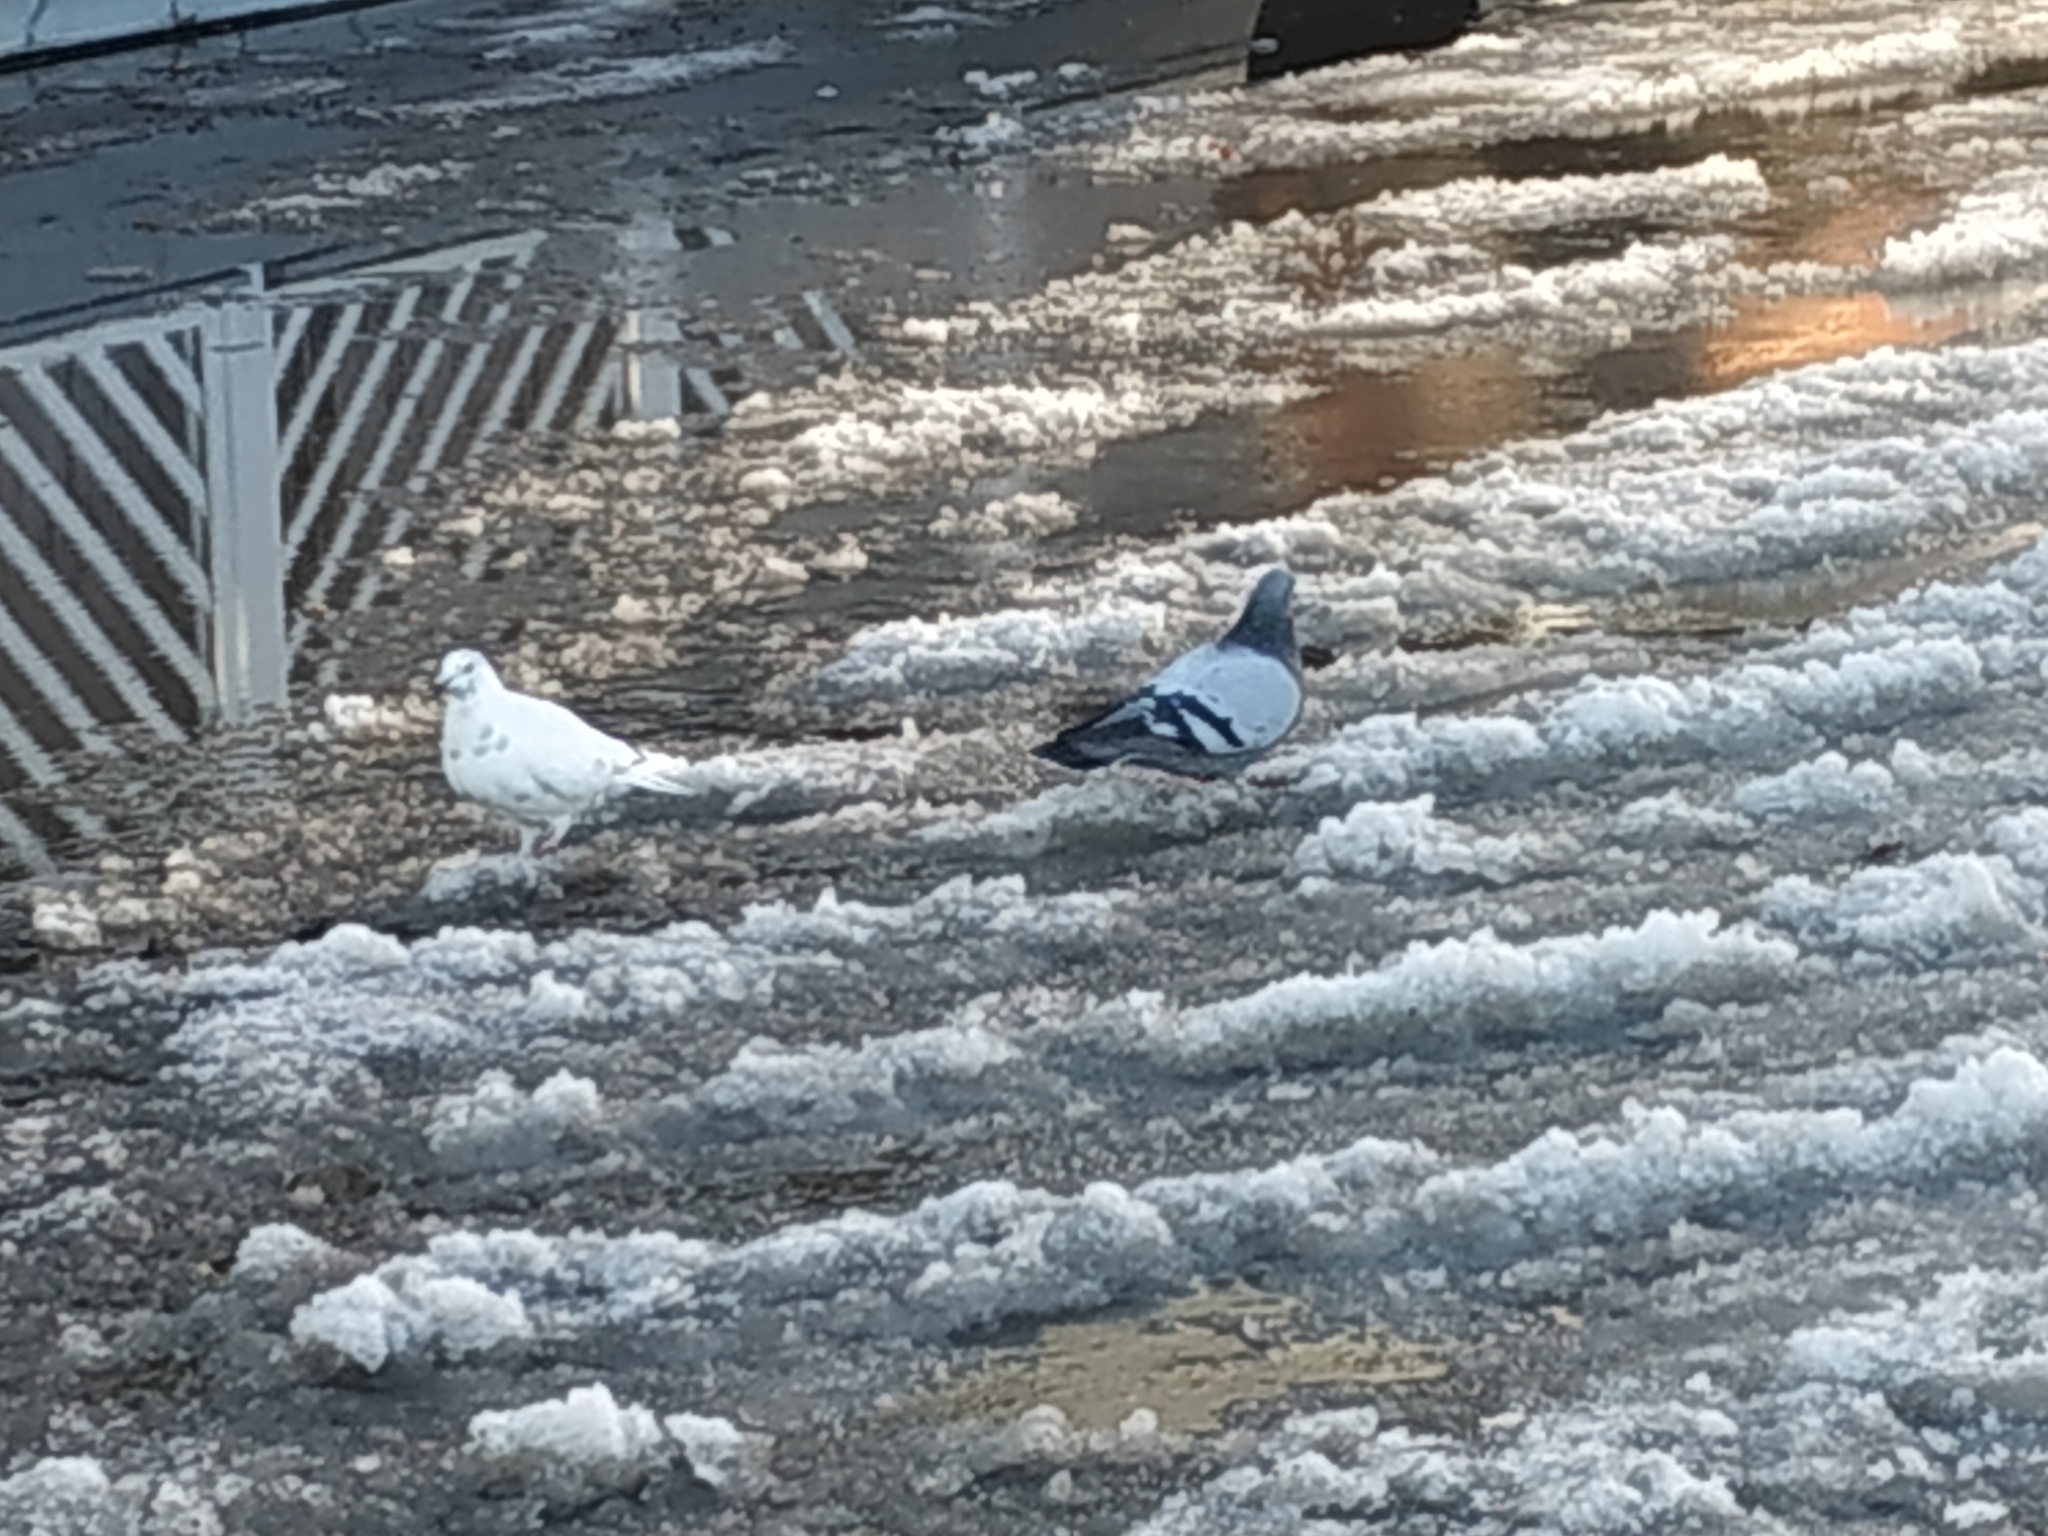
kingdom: Animalia
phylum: Chordata
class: Aves
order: Columbiformes
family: Columbidae
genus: Columba
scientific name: Columba livia
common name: Rock pigeon
